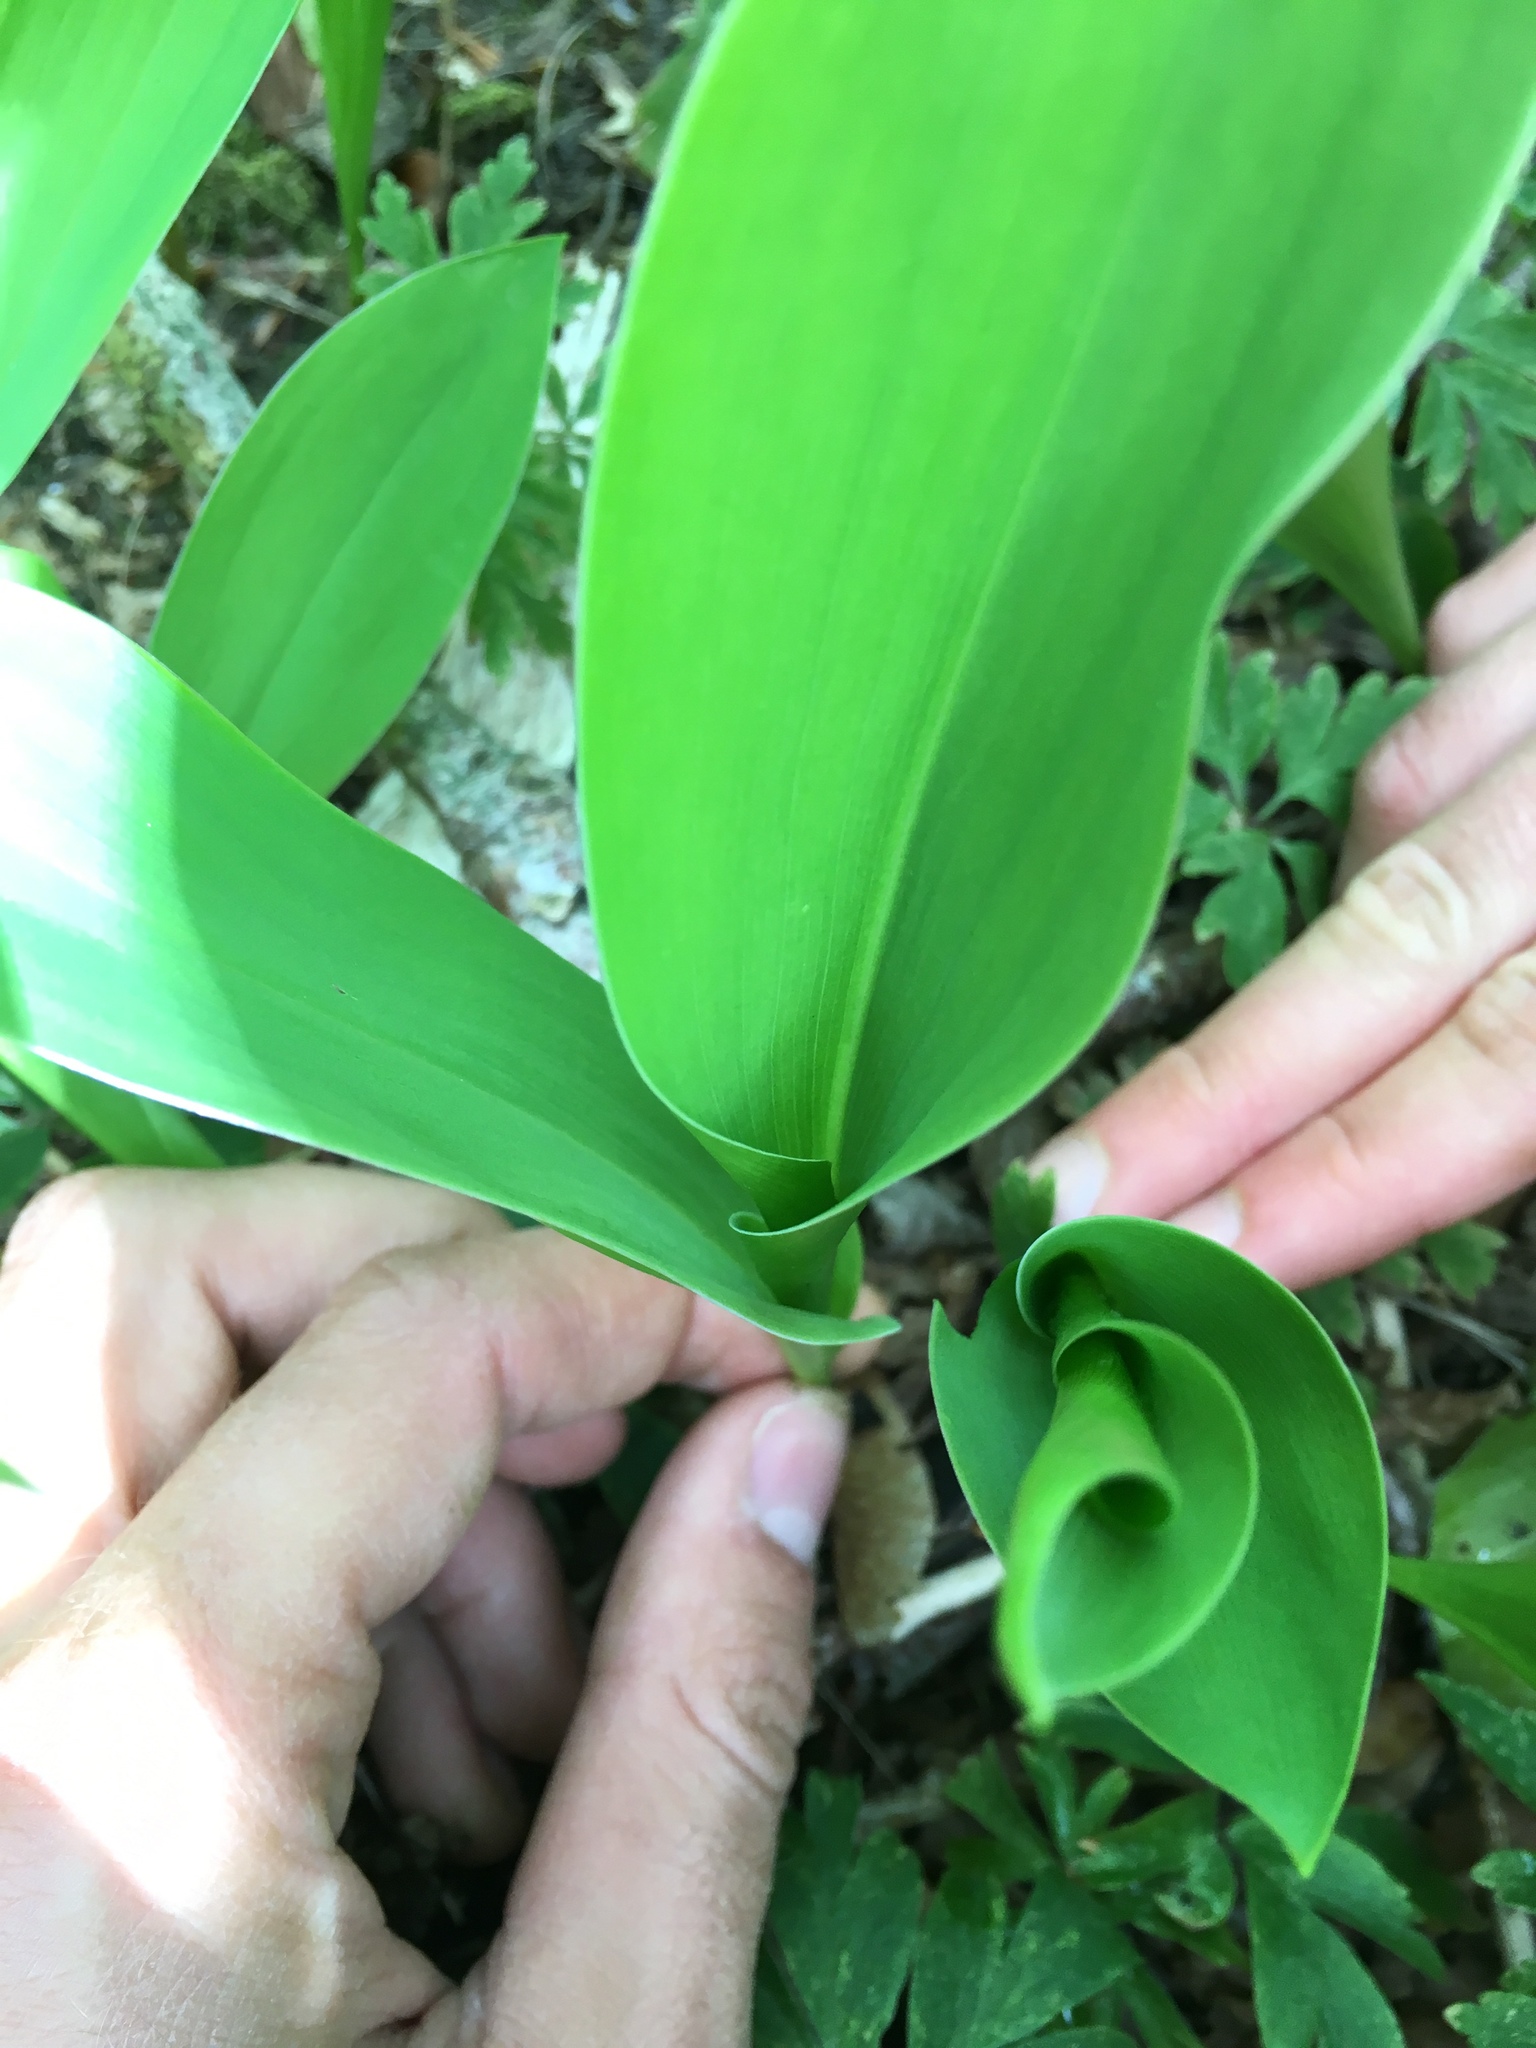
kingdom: Plantae
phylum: Tracheophyta
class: Liliopsida
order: Asparagales
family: Asparagaceae
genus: Convallaria
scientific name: Convallaria majalis
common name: Lily-of-the-valley
